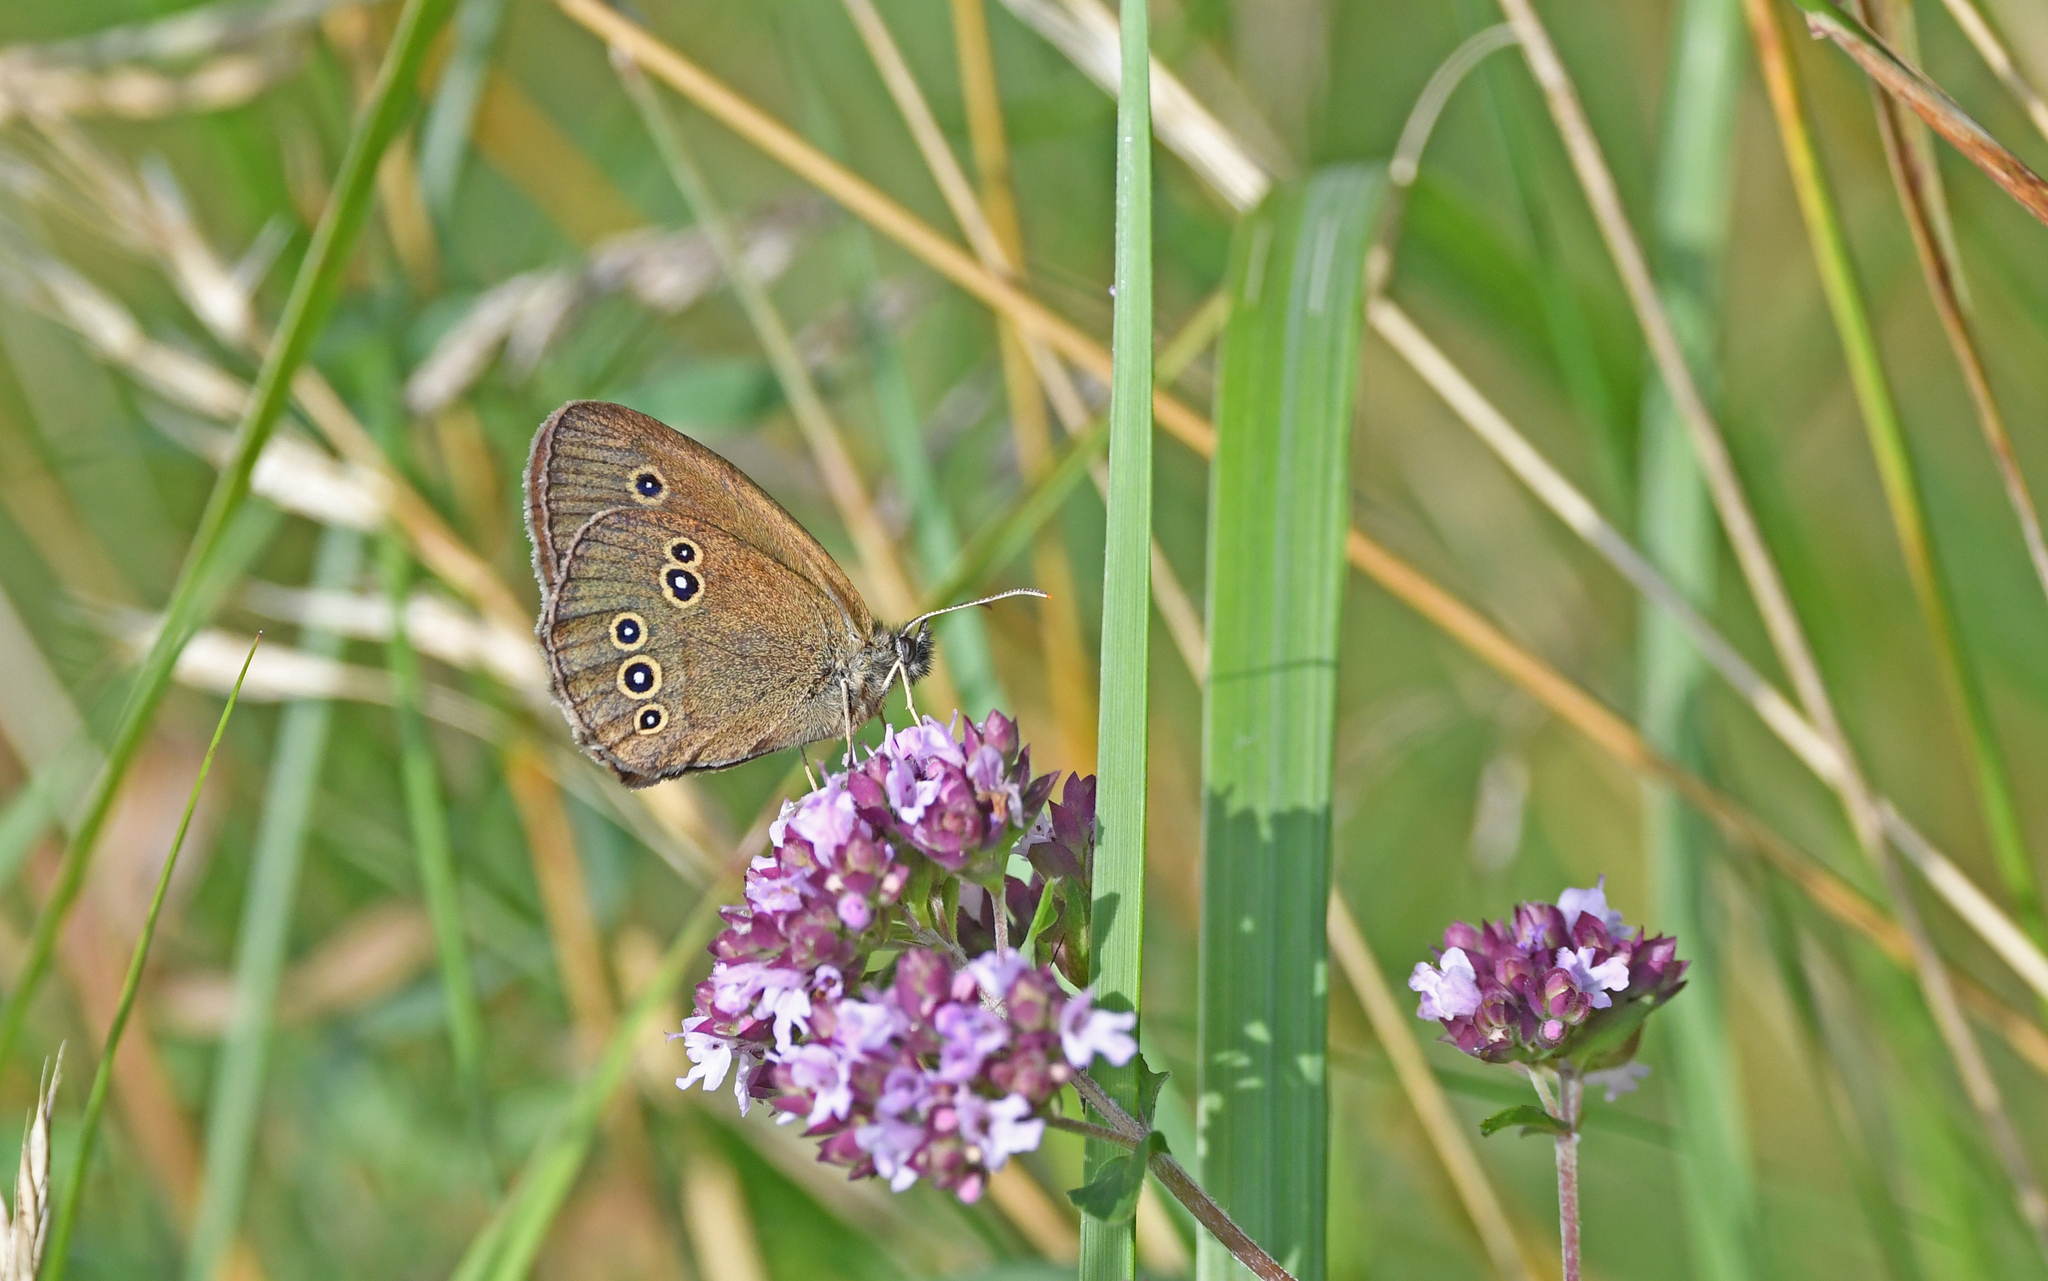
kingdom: Animalia
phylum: Arthropoda
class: Insecta
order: Lepidoptera
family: Nymphalidae
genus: Aphantopus
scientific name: Aphantopus hyperantus
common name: Ringlet
